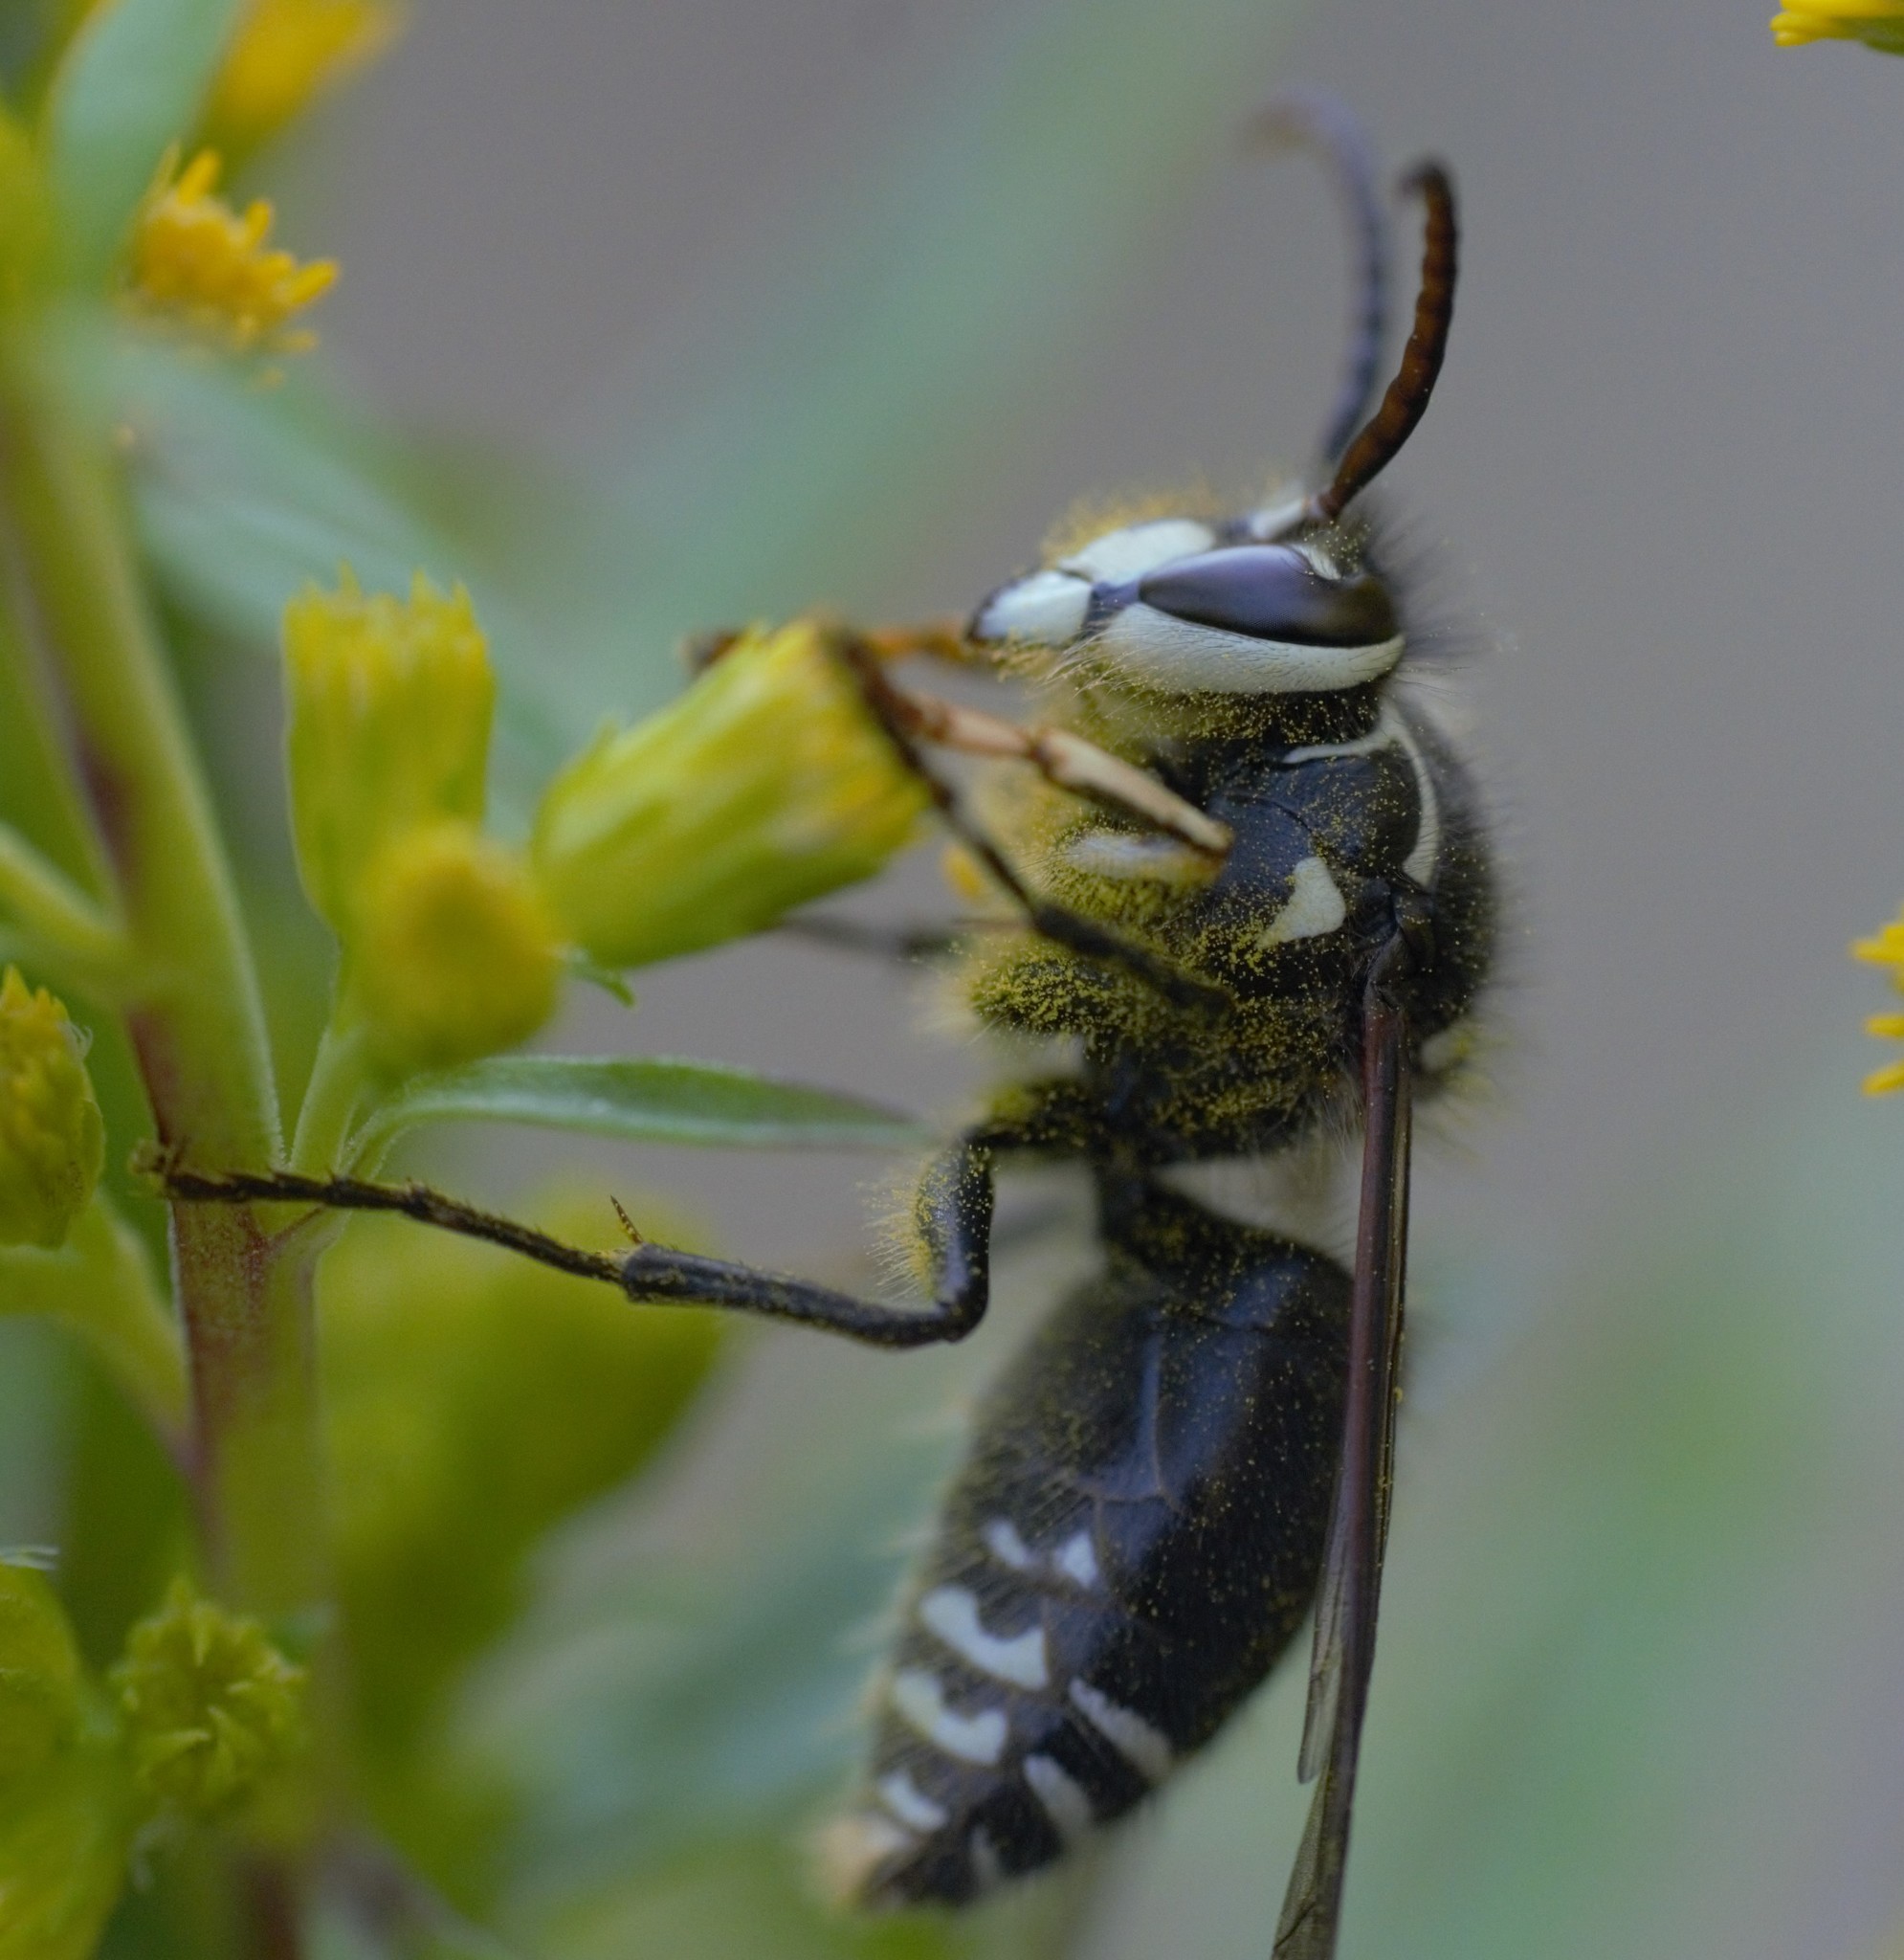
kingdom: Animalia
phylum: Arthropoda
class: Insecta
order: Hymenoptera
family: Vespidae
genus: Dolichovespula
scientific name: Dolichovespula maculata
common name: Bald-faced hornet
